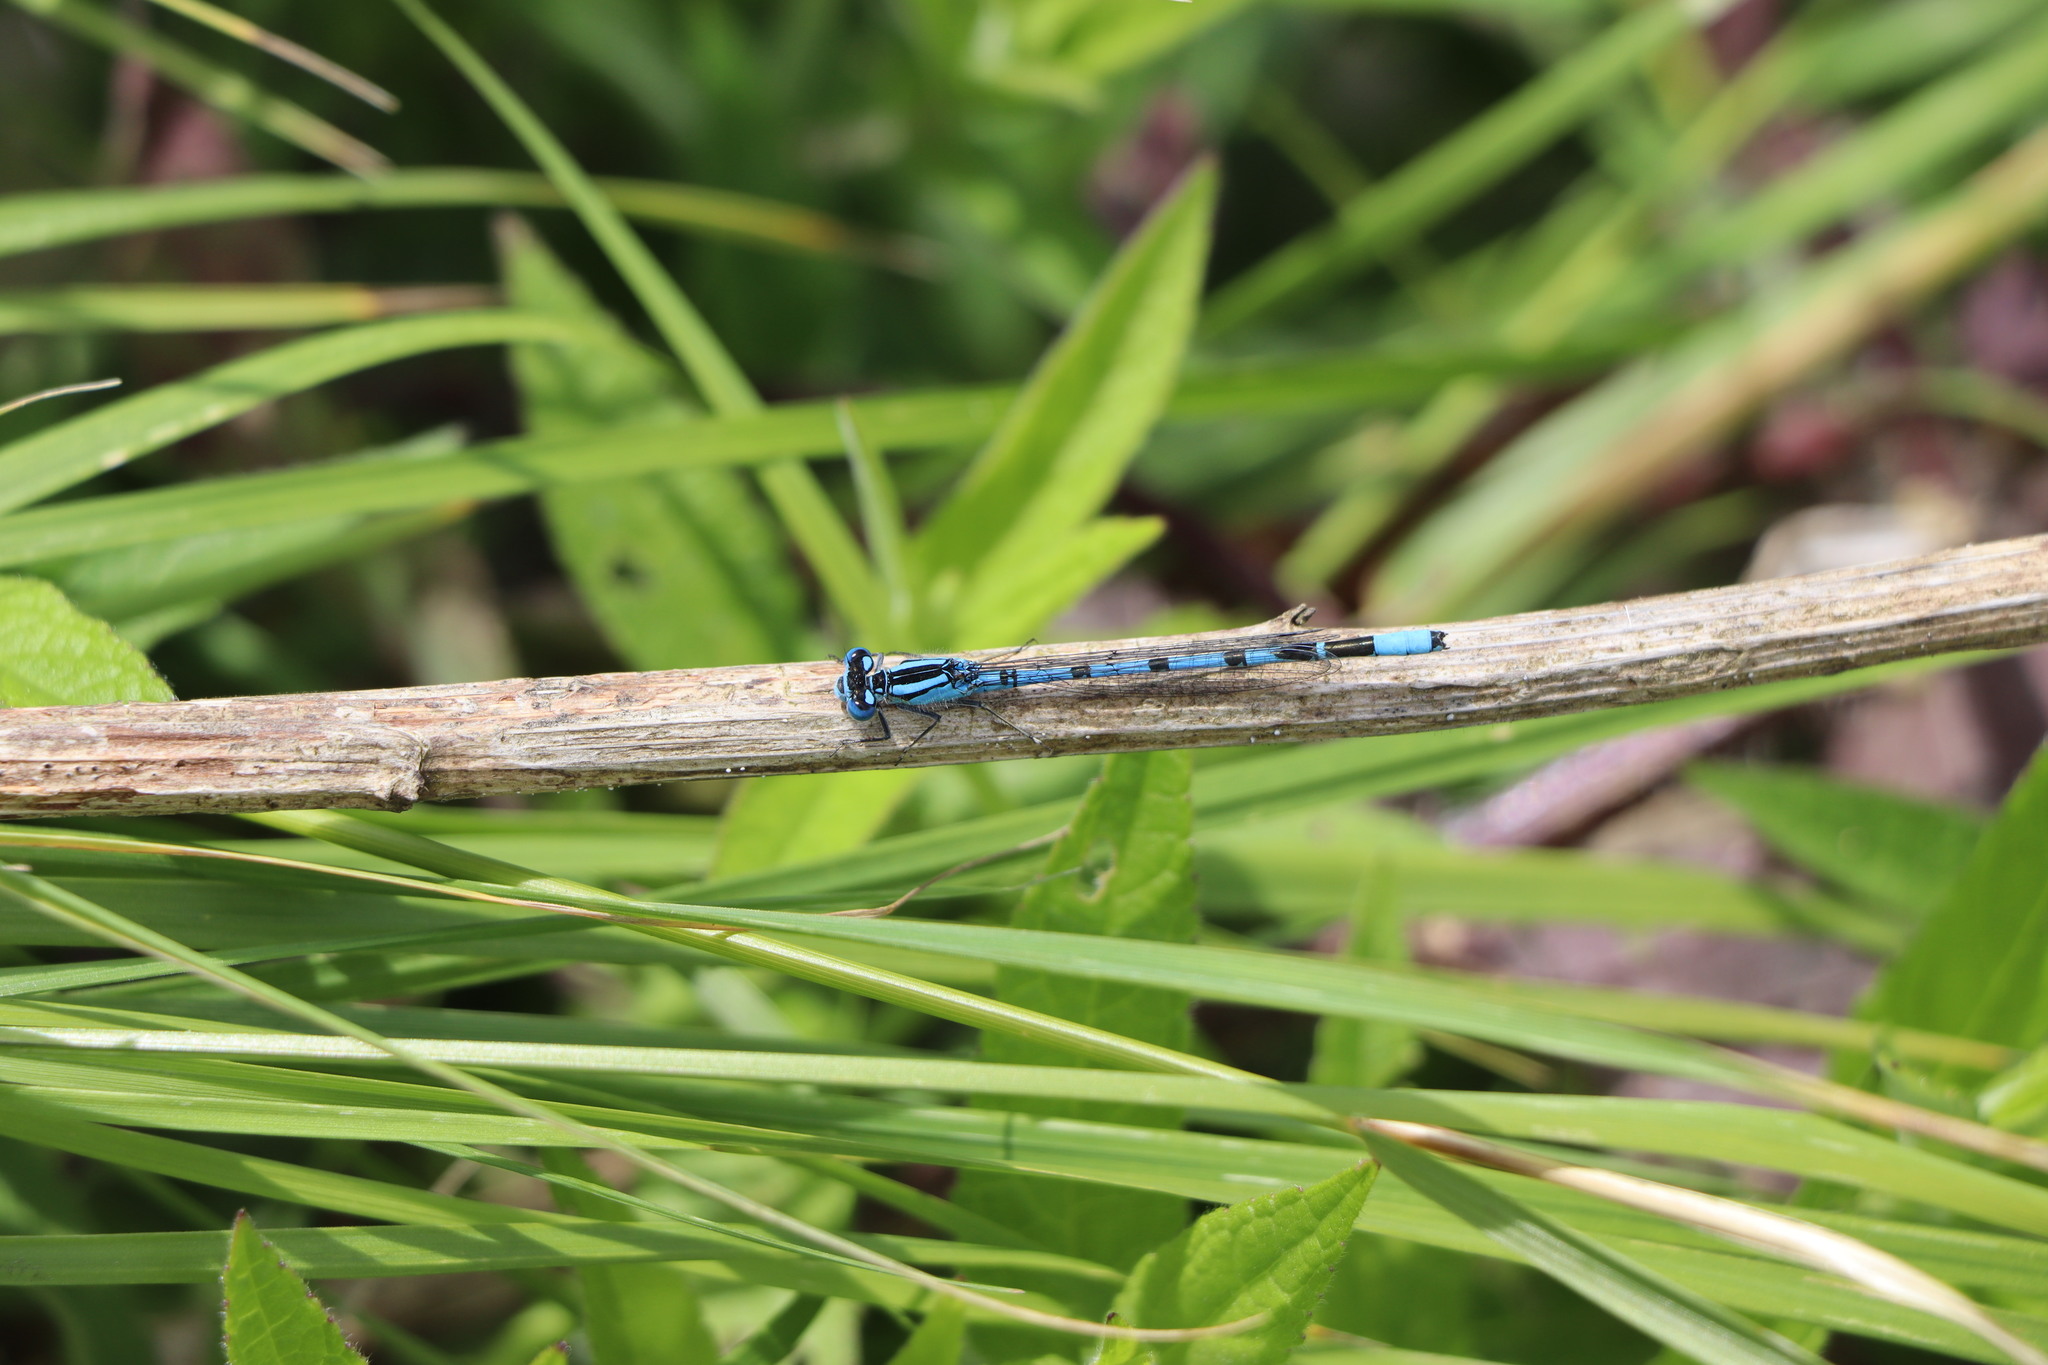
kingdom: Animalia
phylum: Arthropoda
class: Insecta
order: Odonata
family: Coenagrionidae
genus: Enallagma
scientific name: Enallagma cyathigerum
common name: Common blue damselfly
